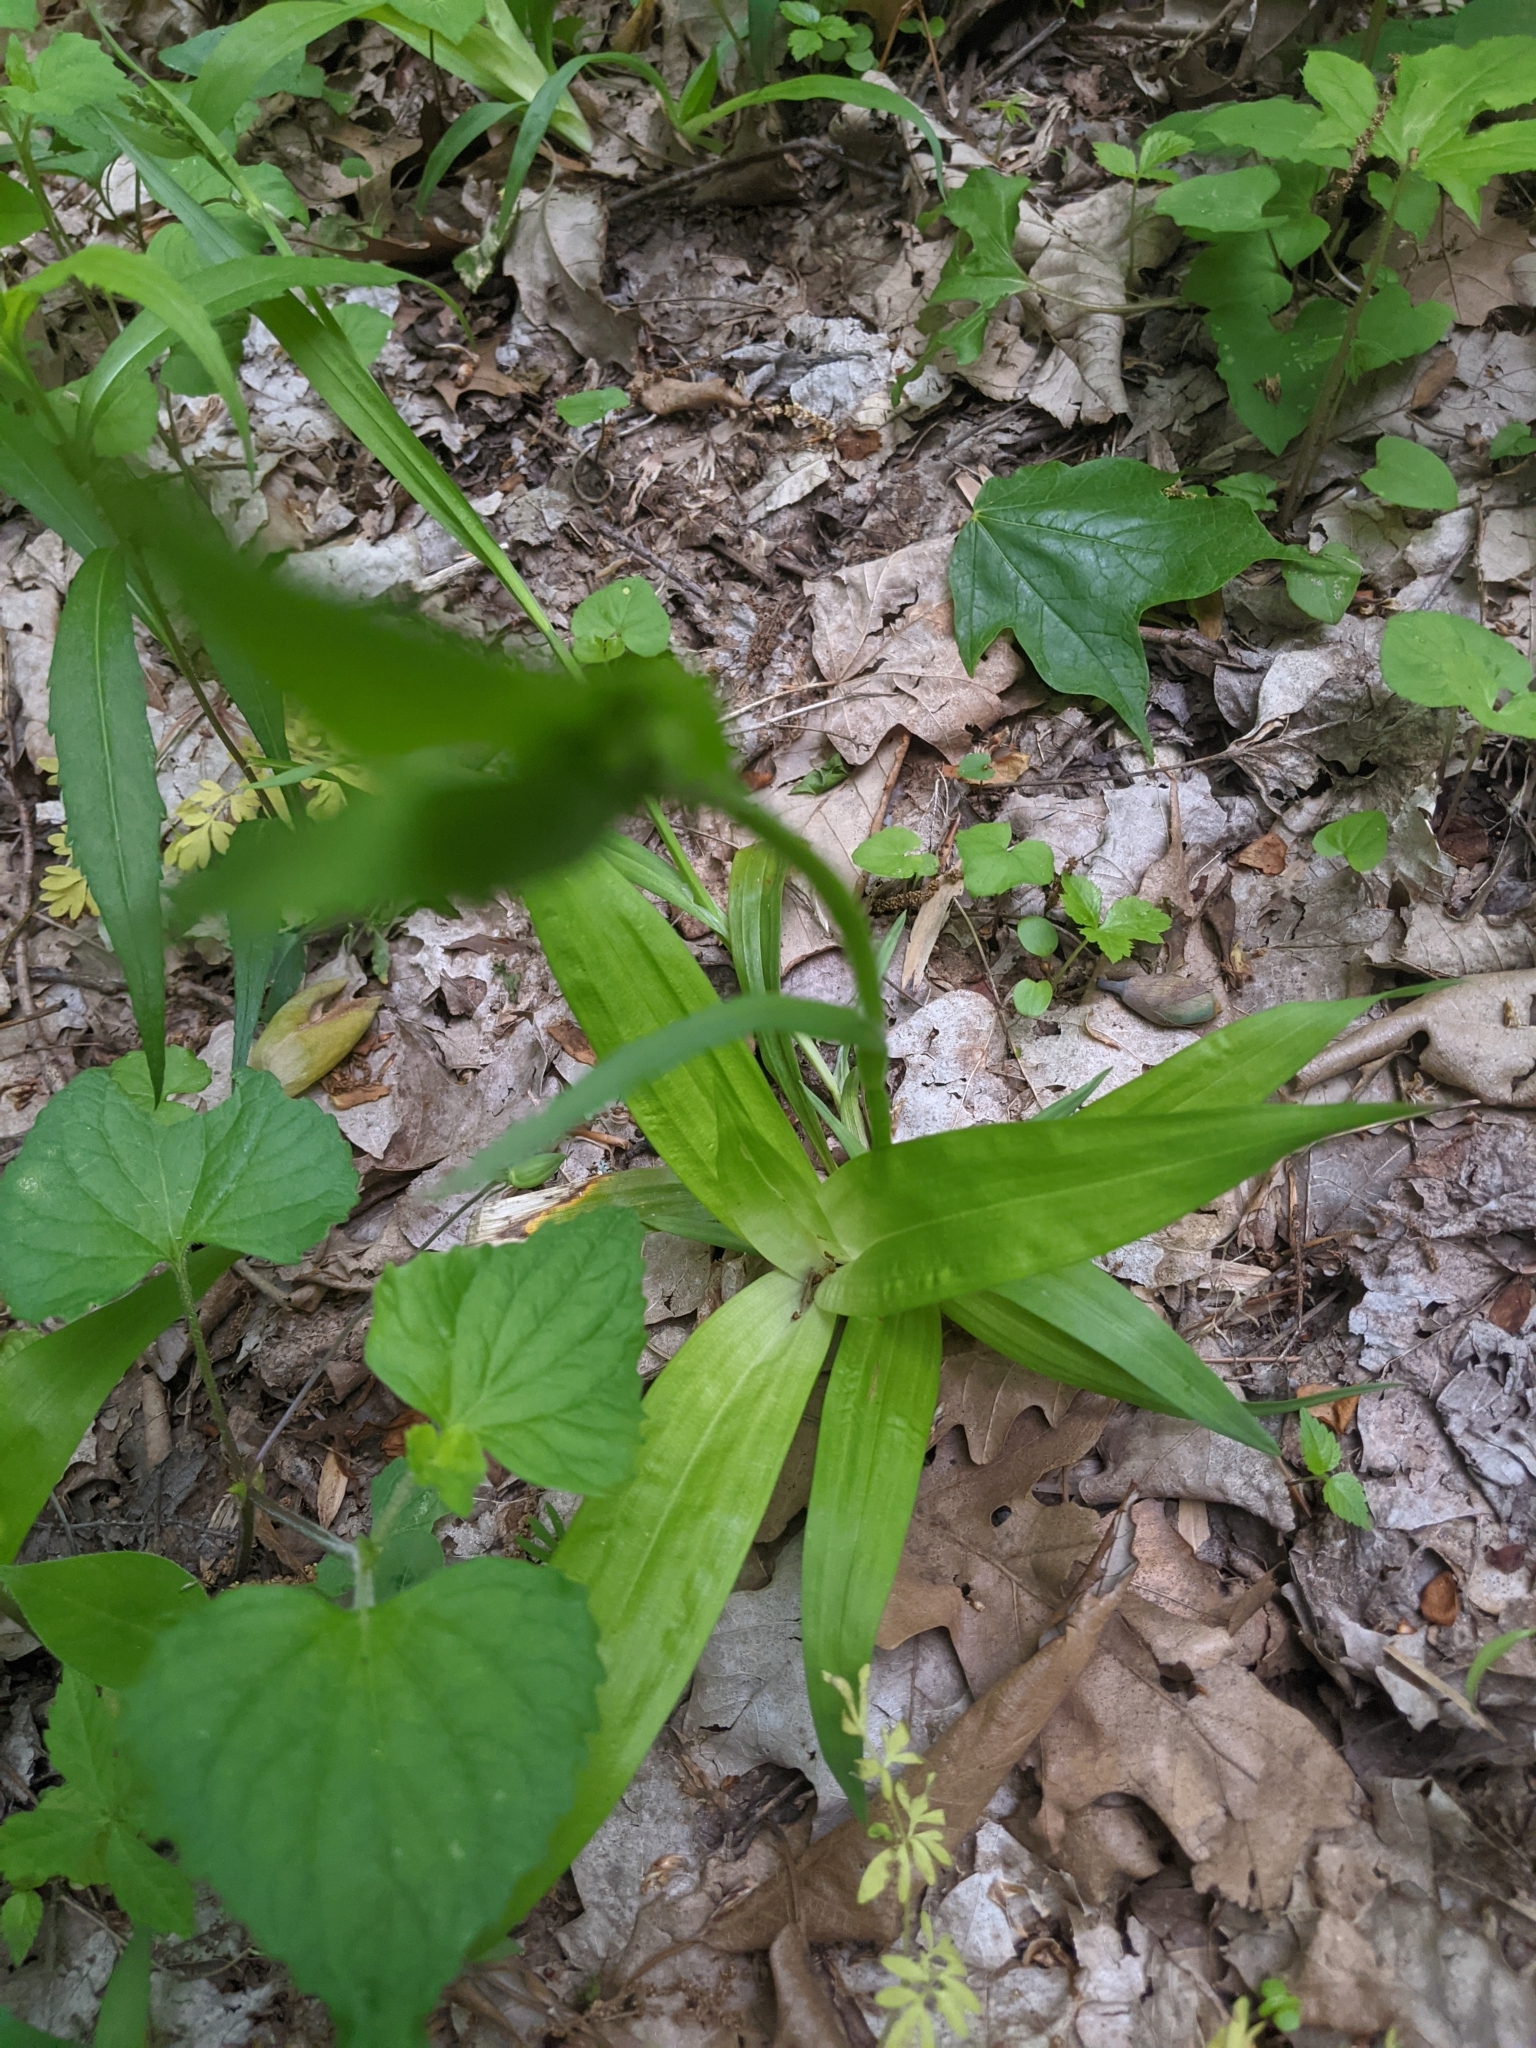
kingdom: Plantae
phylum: Tracheophyta
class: Liliopsida
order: Poales
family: Cyperaceae
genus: Carex
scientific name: Carex albursina
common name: Blunt-scale wood sedge
